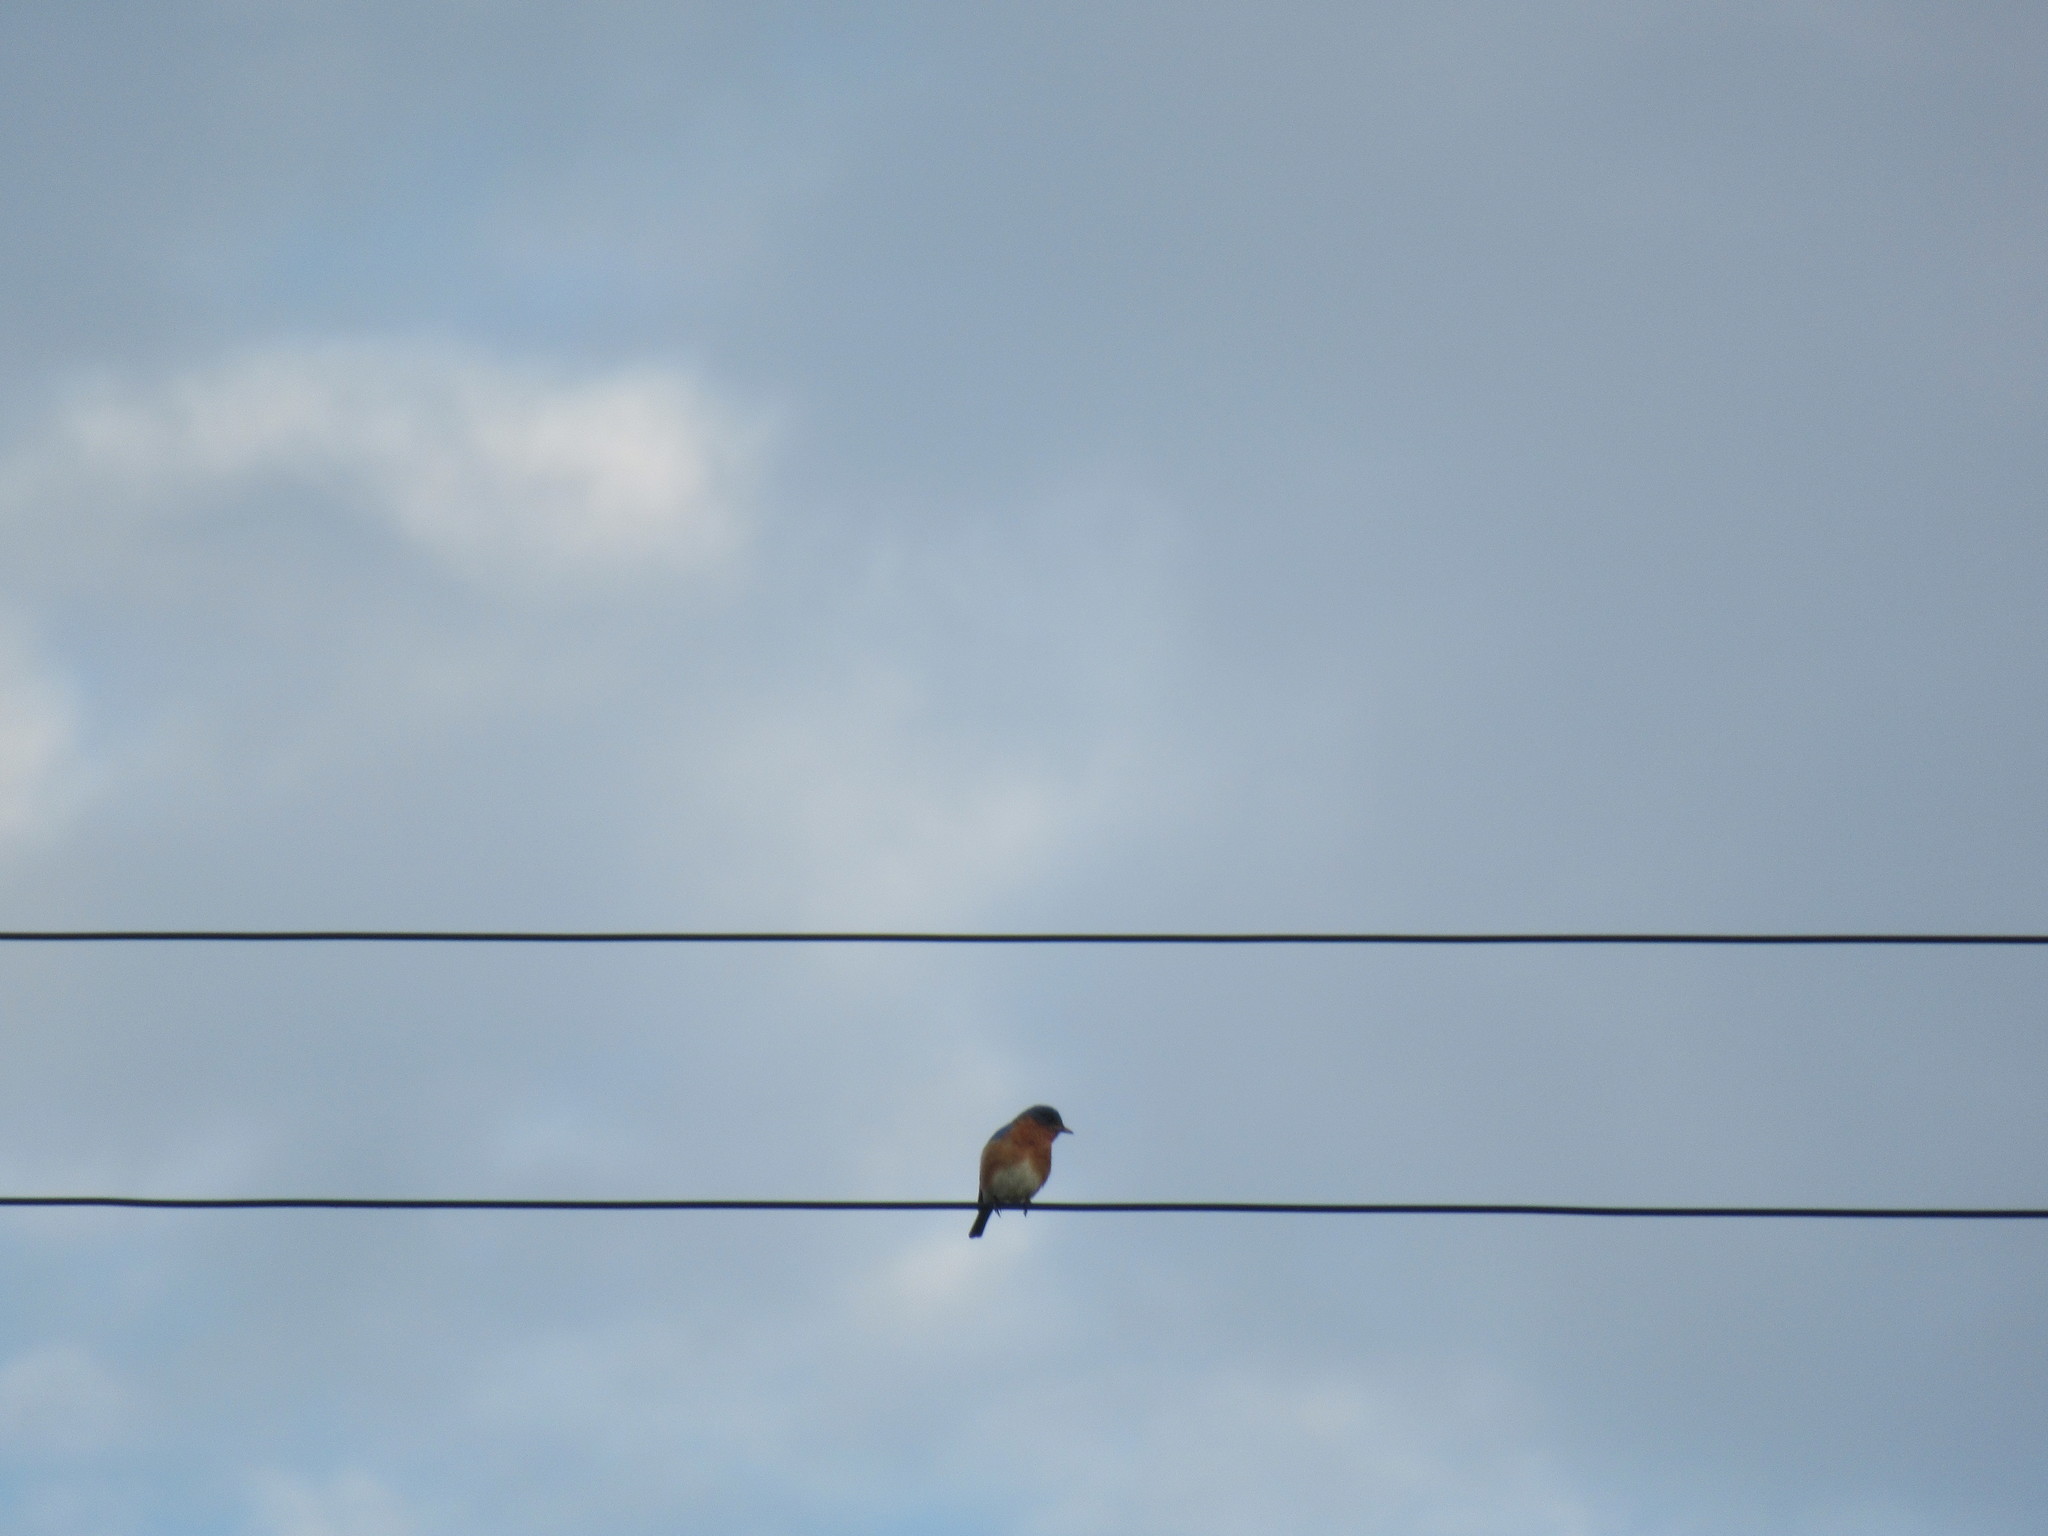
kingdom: Animalia
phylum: Chordata
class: Aves
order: Passeriformes
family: Turdidae
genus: Sialia
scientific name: Sialia sialis
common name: Eastern bluebird
